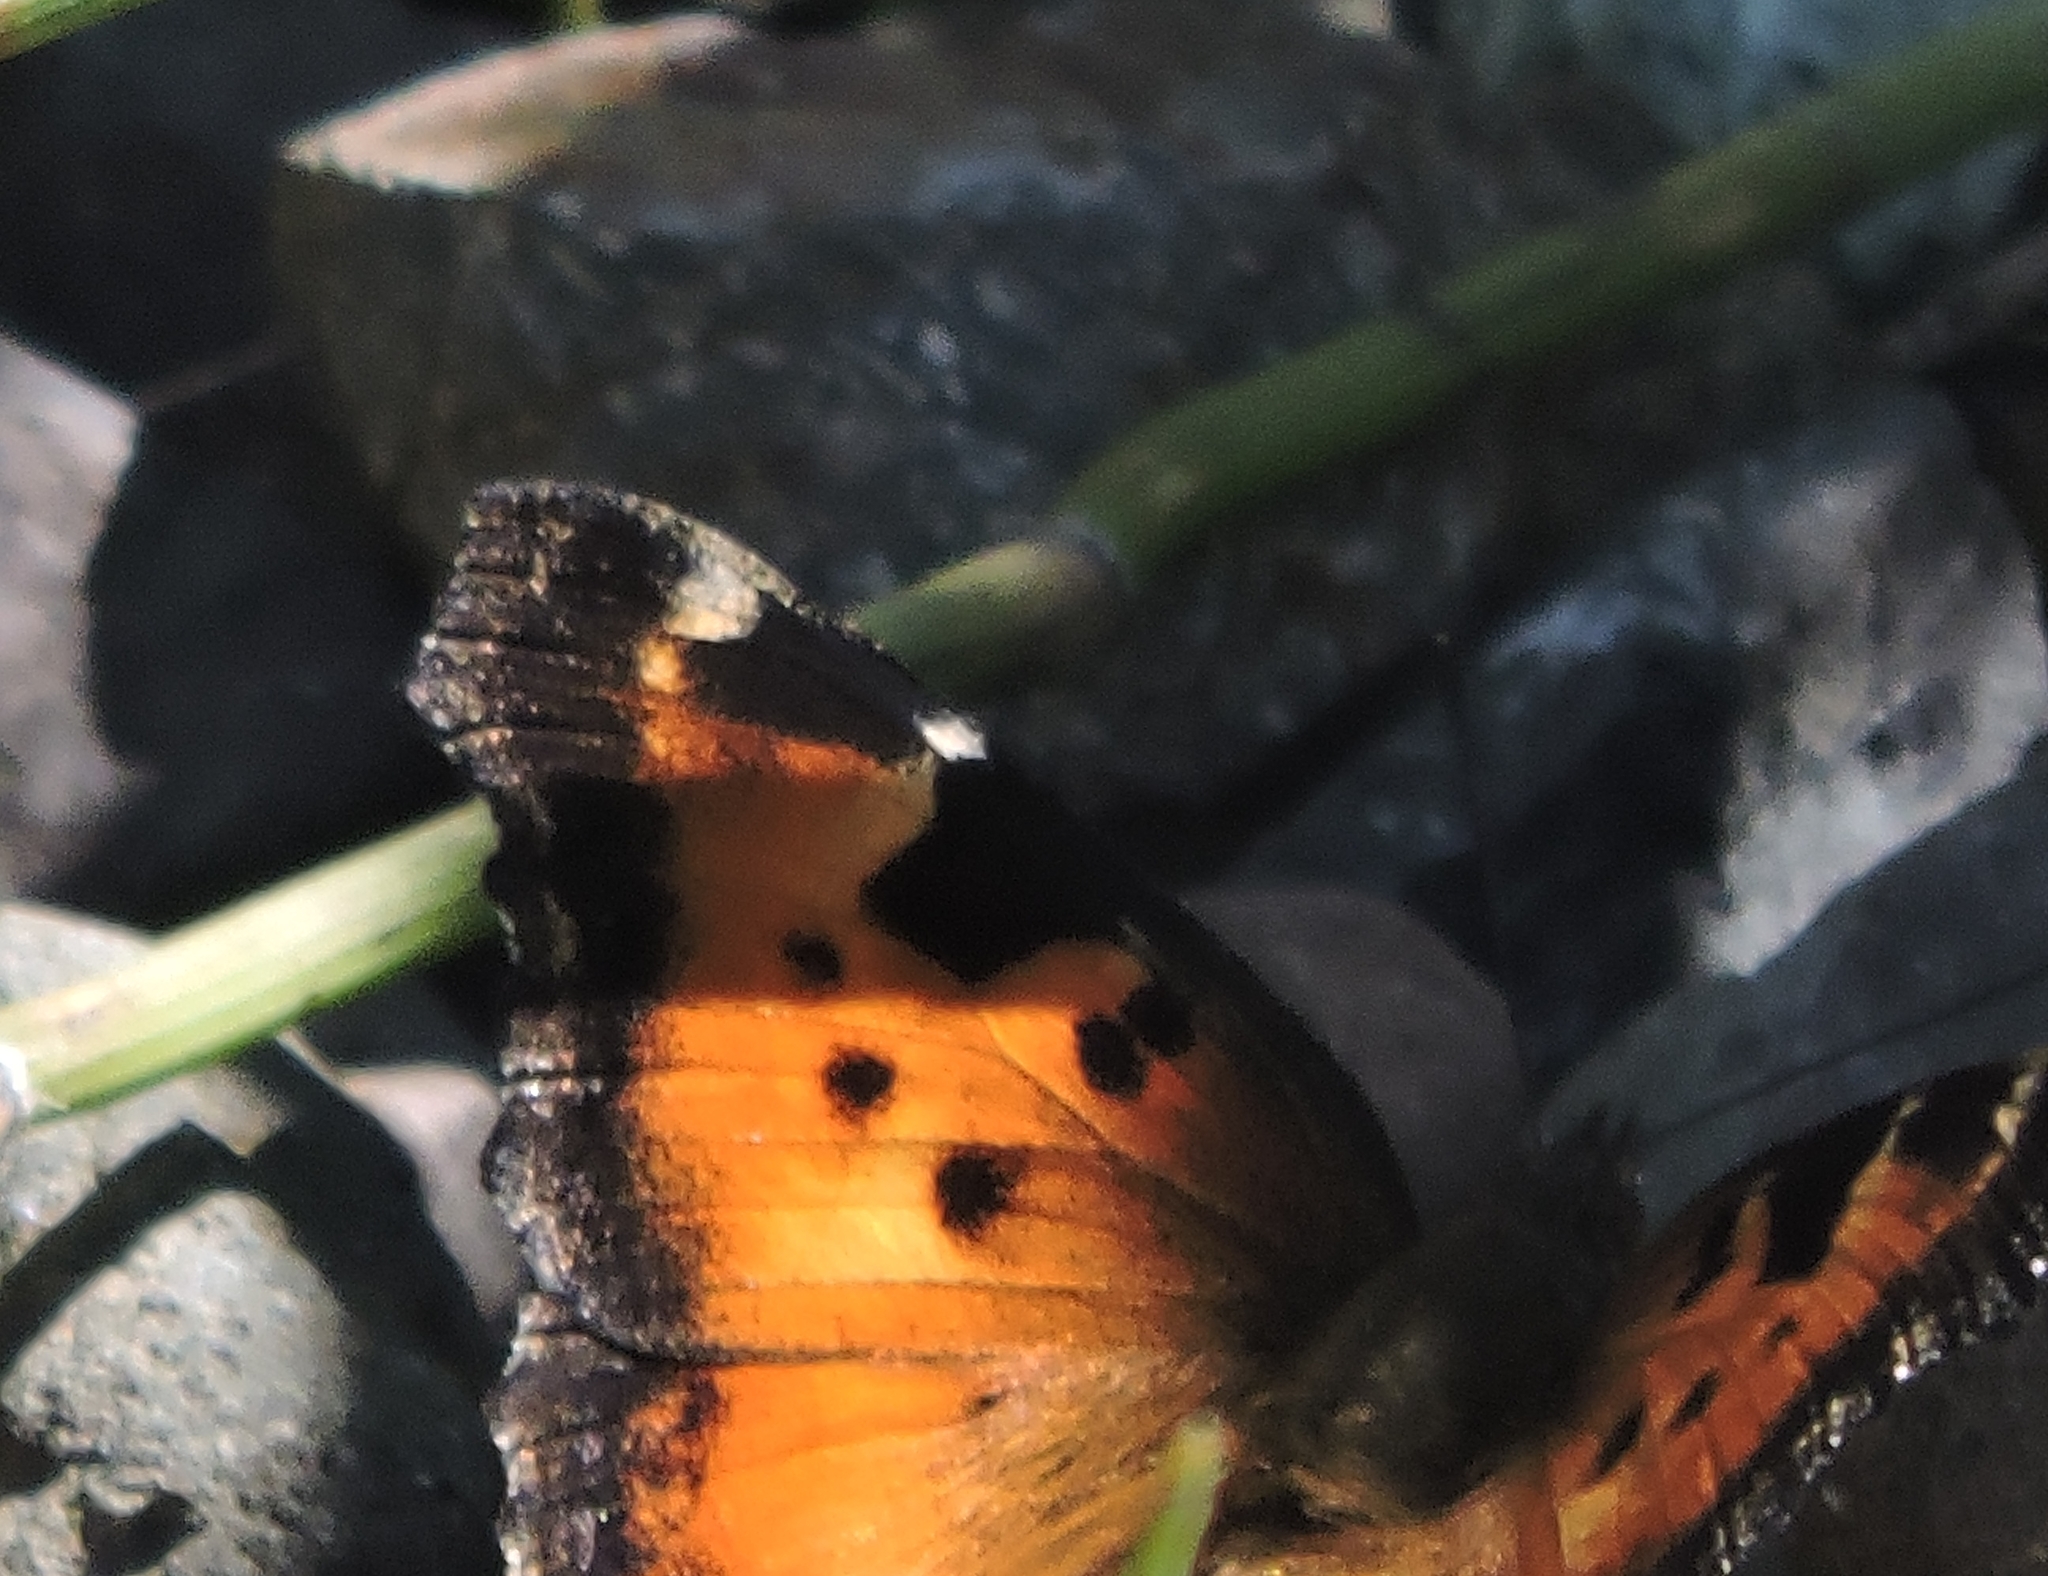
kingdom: Animalia
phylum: Arthropoda
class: Insecta
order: Lepidoptera
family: Nymphalidae
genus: Nymphalis
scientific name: Nymphalis californica
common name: California tortoiseshell
